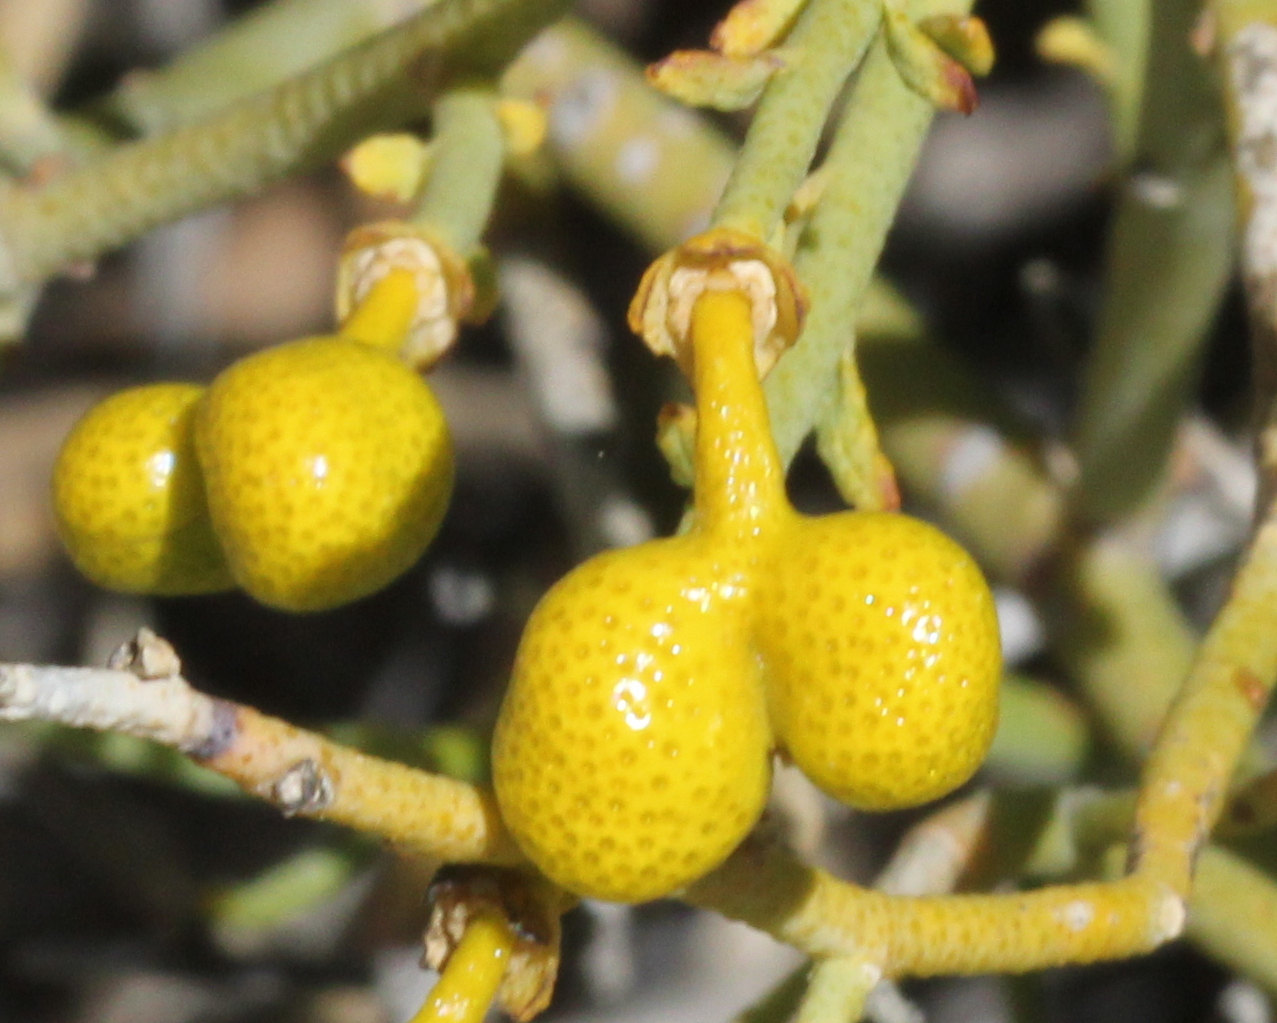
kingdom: Plantae
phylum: Tracheophyta
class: Magnoliopsida
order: Sapindales
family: Rutaceae
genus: Thamnosma
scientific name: Thamnosma montana
